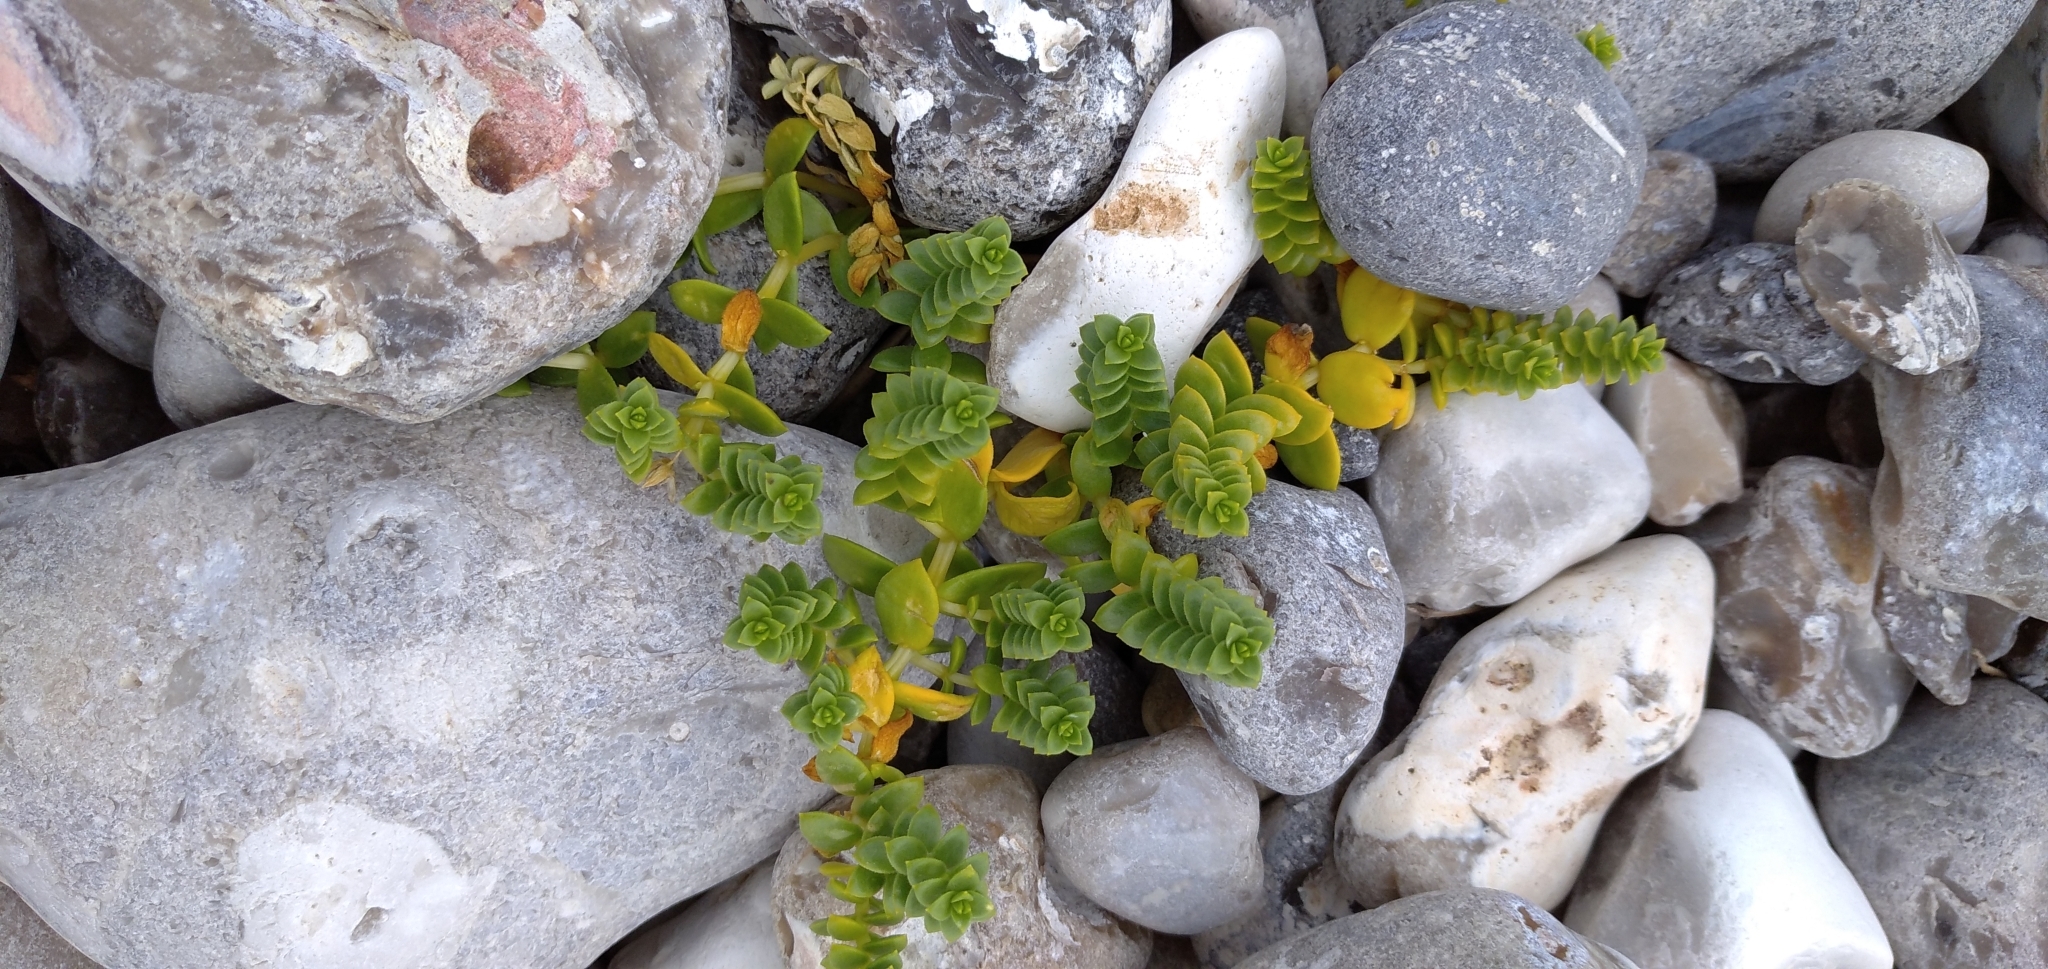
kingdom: Plantae
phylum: Tracheophyta
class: Magnoliopsida
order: Caryophyllales
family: Caryophyllaceae
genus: Honckenya
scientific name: Honckenya peploides
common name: Sea sandwort
